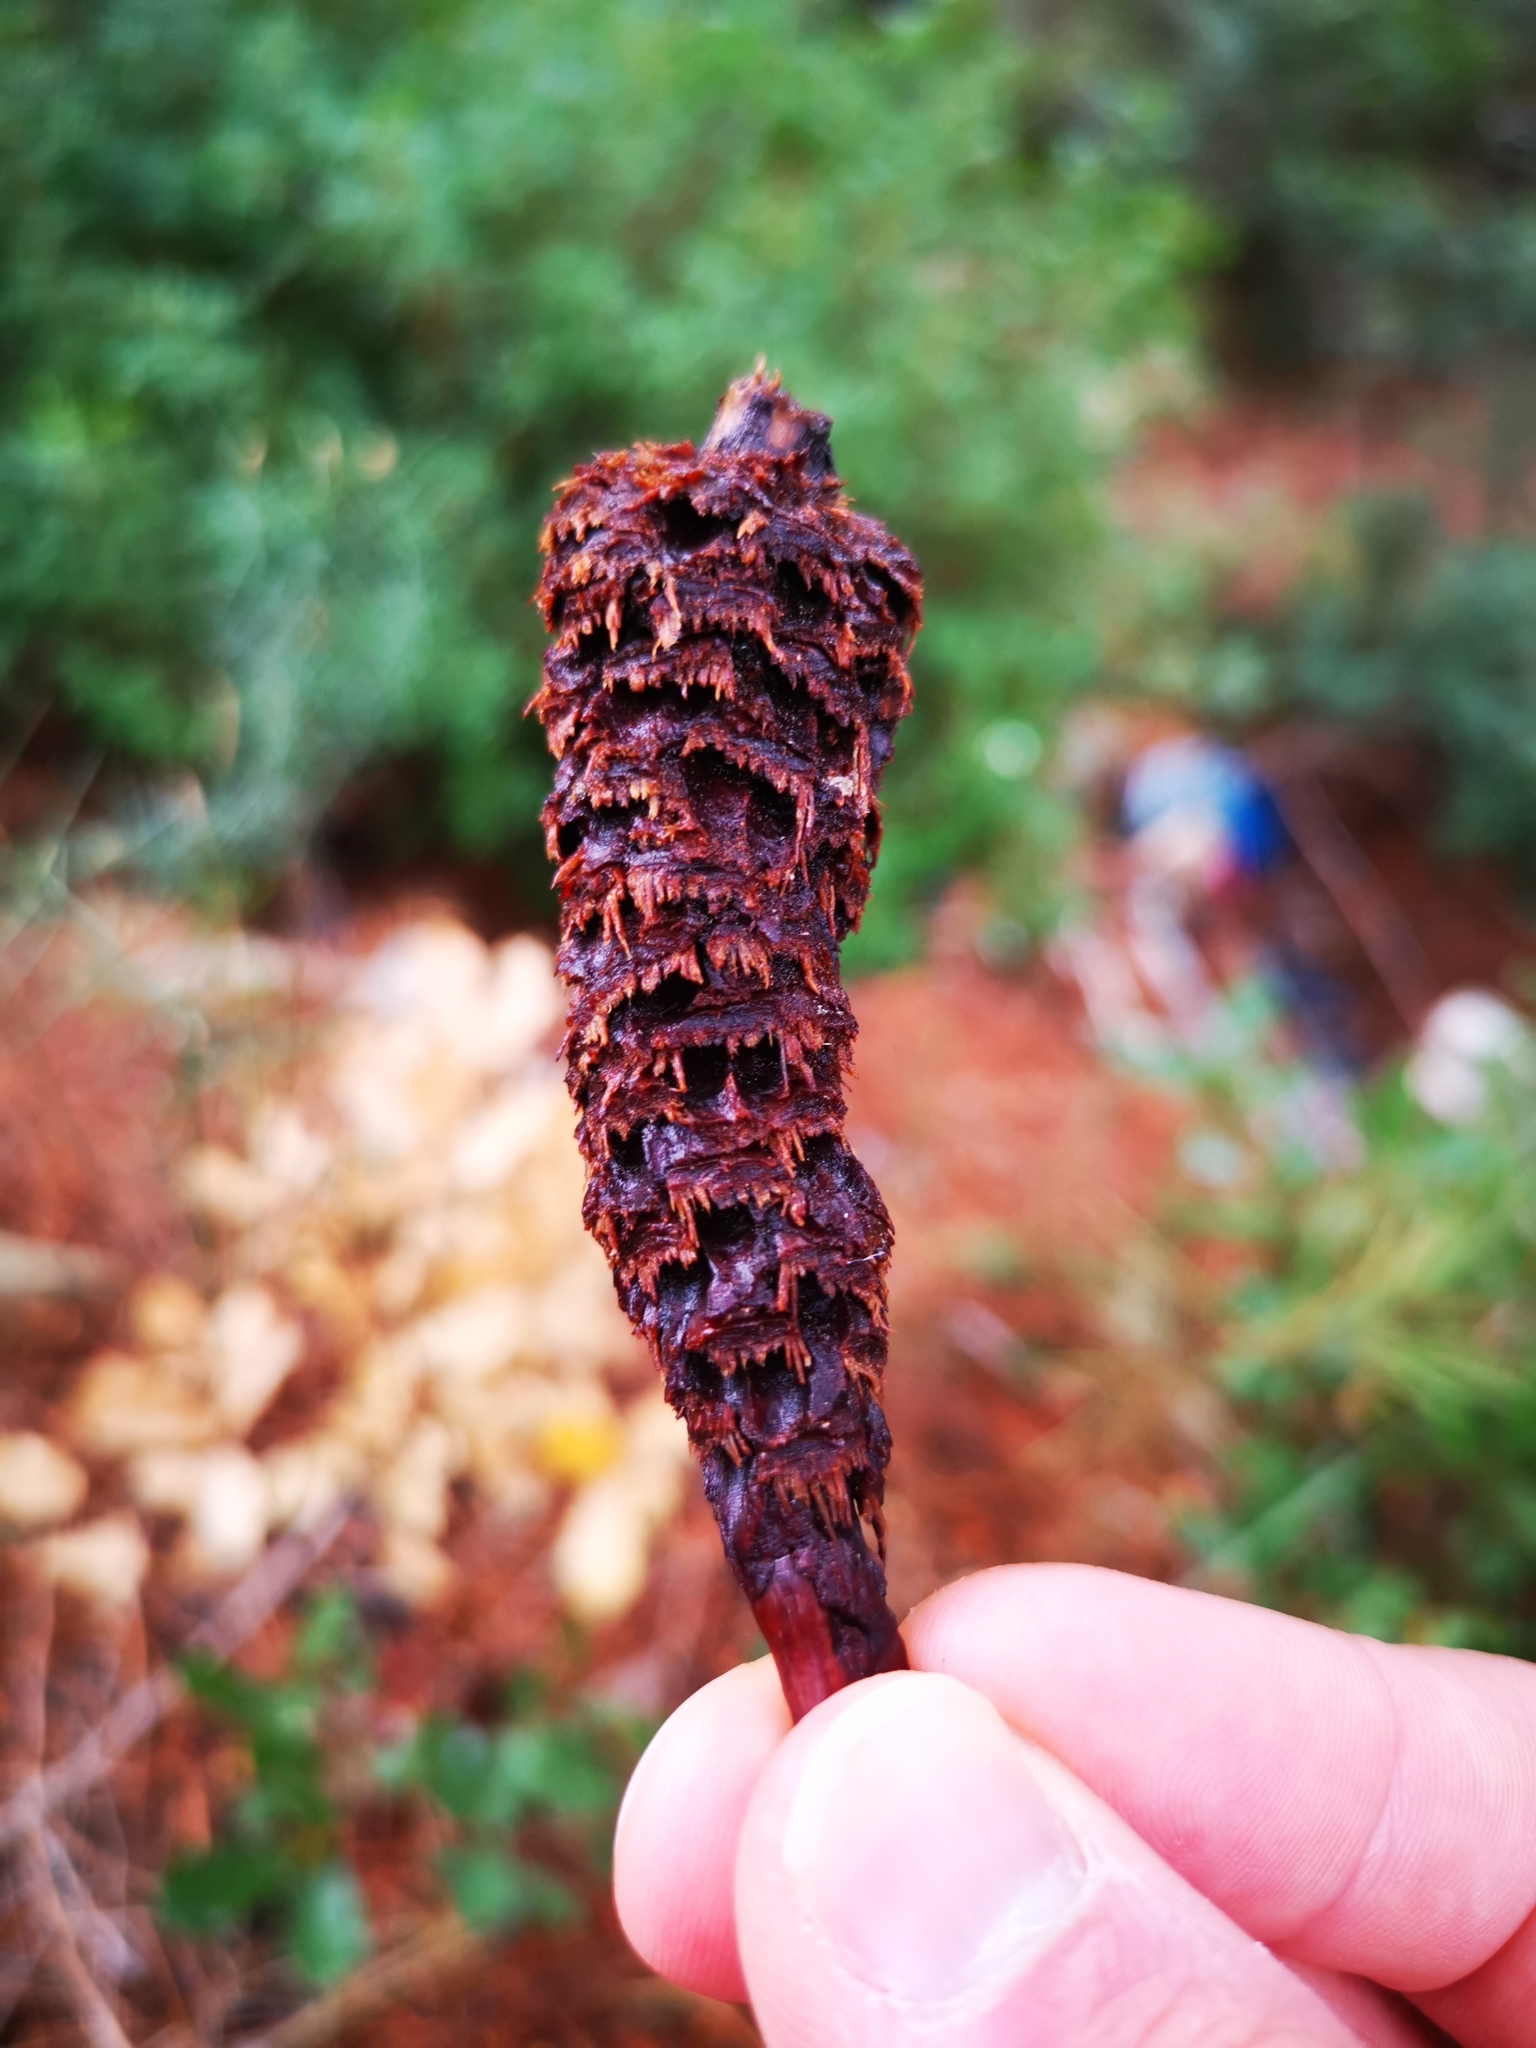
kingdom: Animalia
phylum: Chordata
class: Mammalia
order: Rodentia
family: Sciuridae
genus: Sciurus
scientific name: Sciurus vulgaris
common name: Eurasian red squirrel
